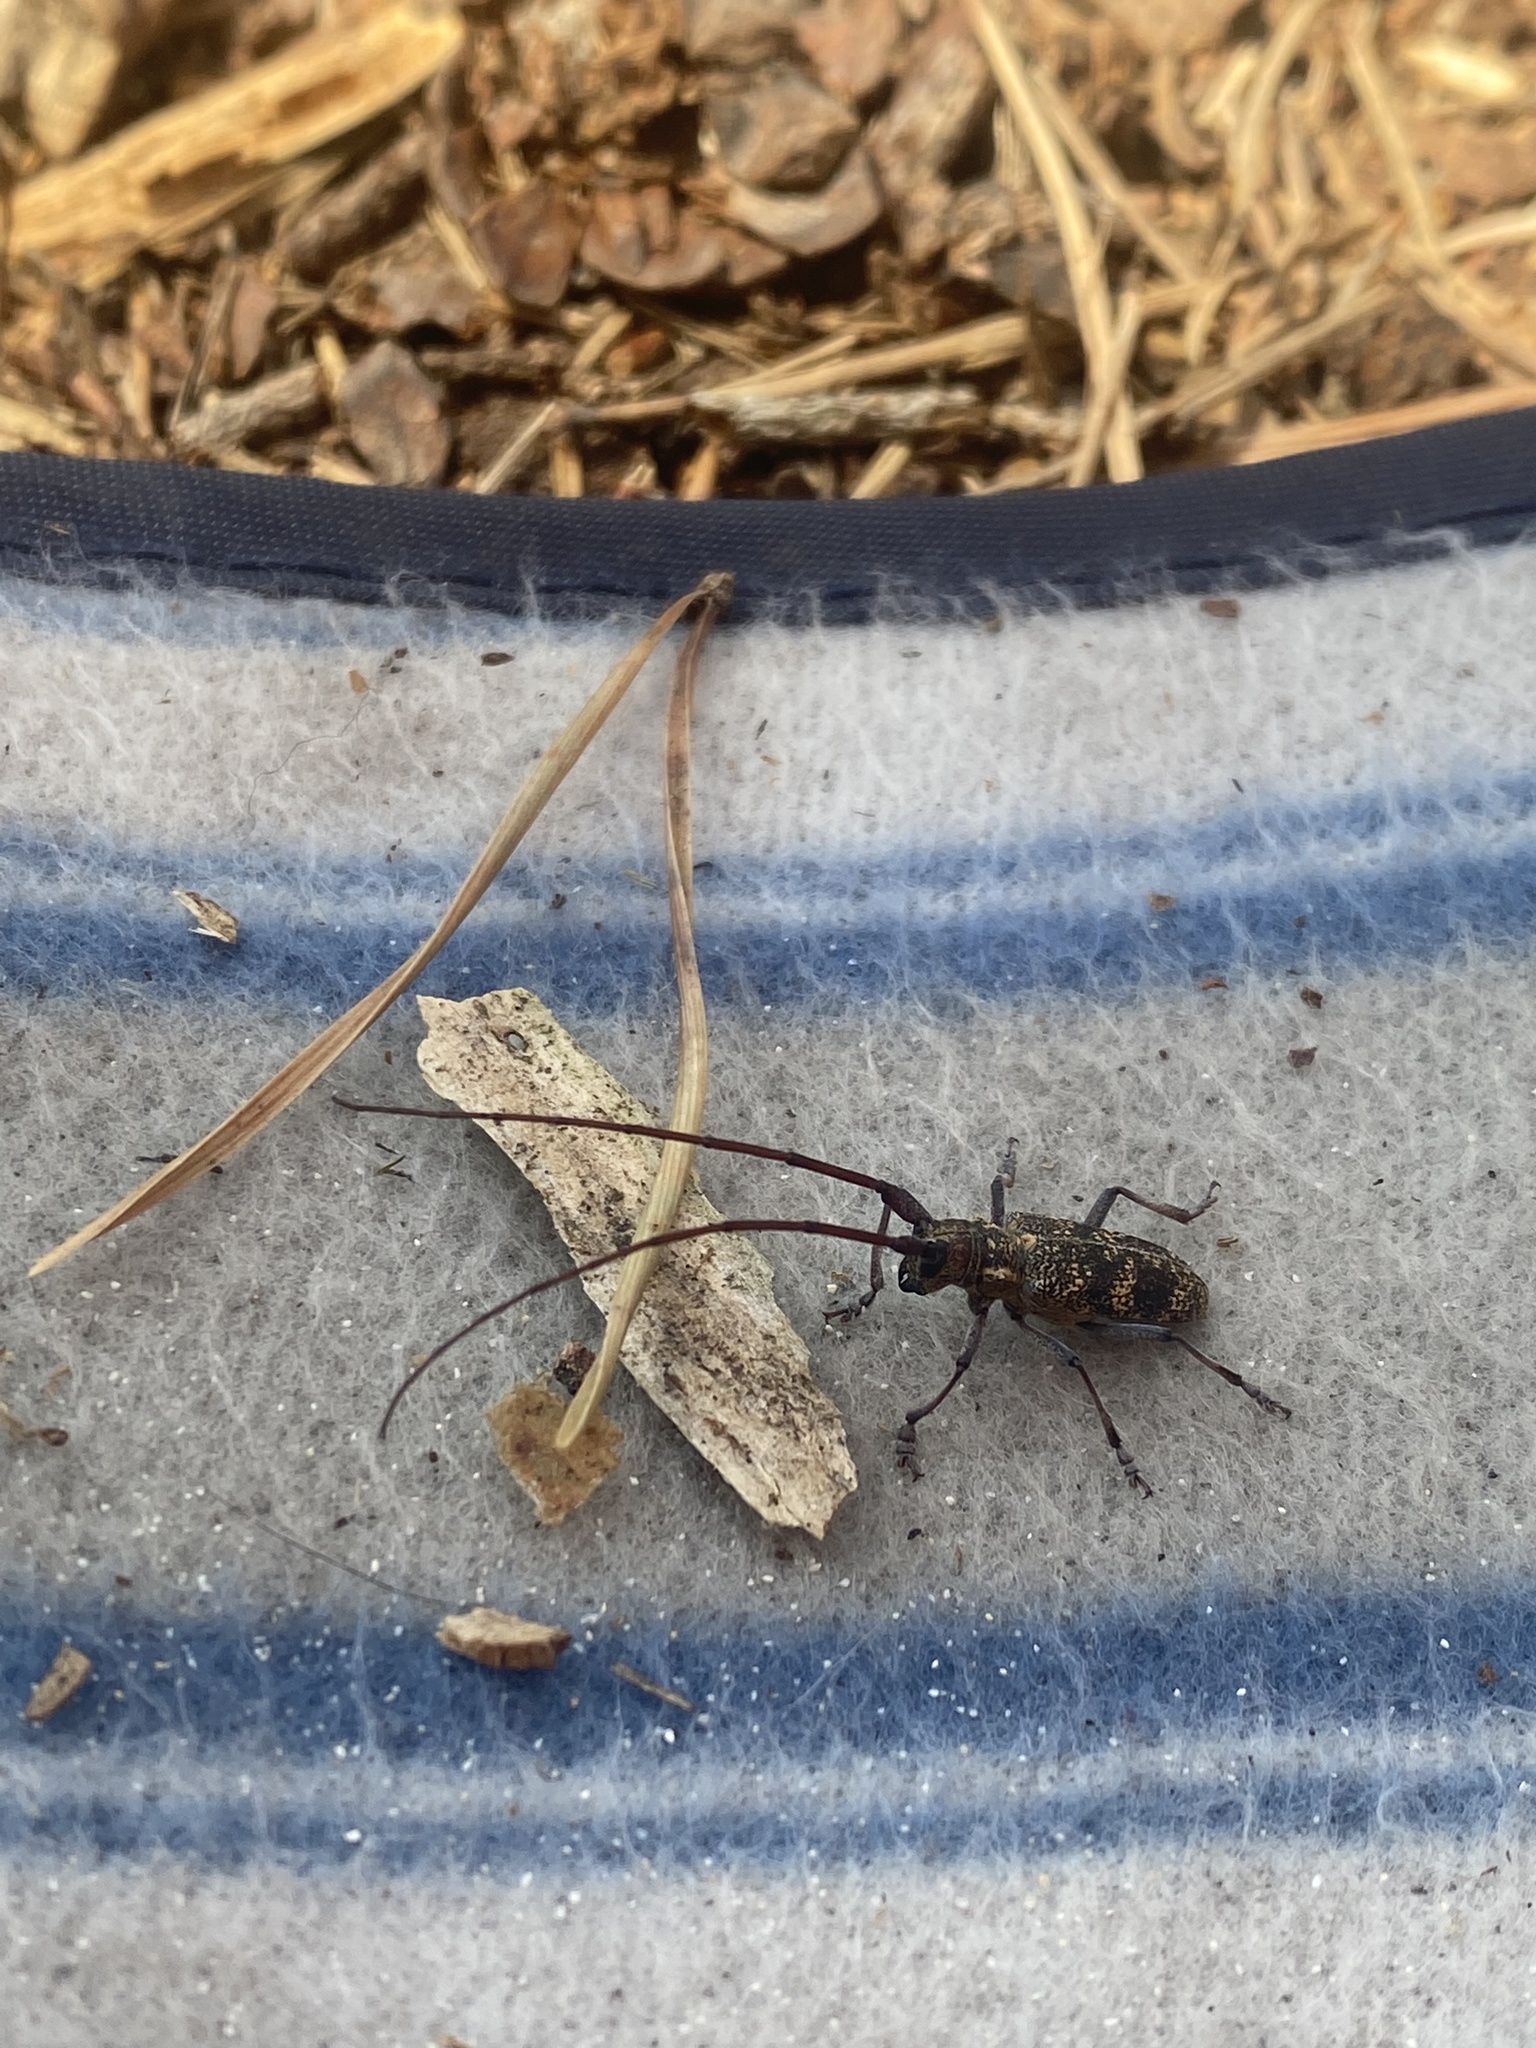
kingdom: Animalia
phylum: Arthropoda
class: Insecta
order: Coleoptera
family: Cerambycidae
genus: Monochamus
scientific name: Monochamus galloprovincialis
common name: Pine sawyer
